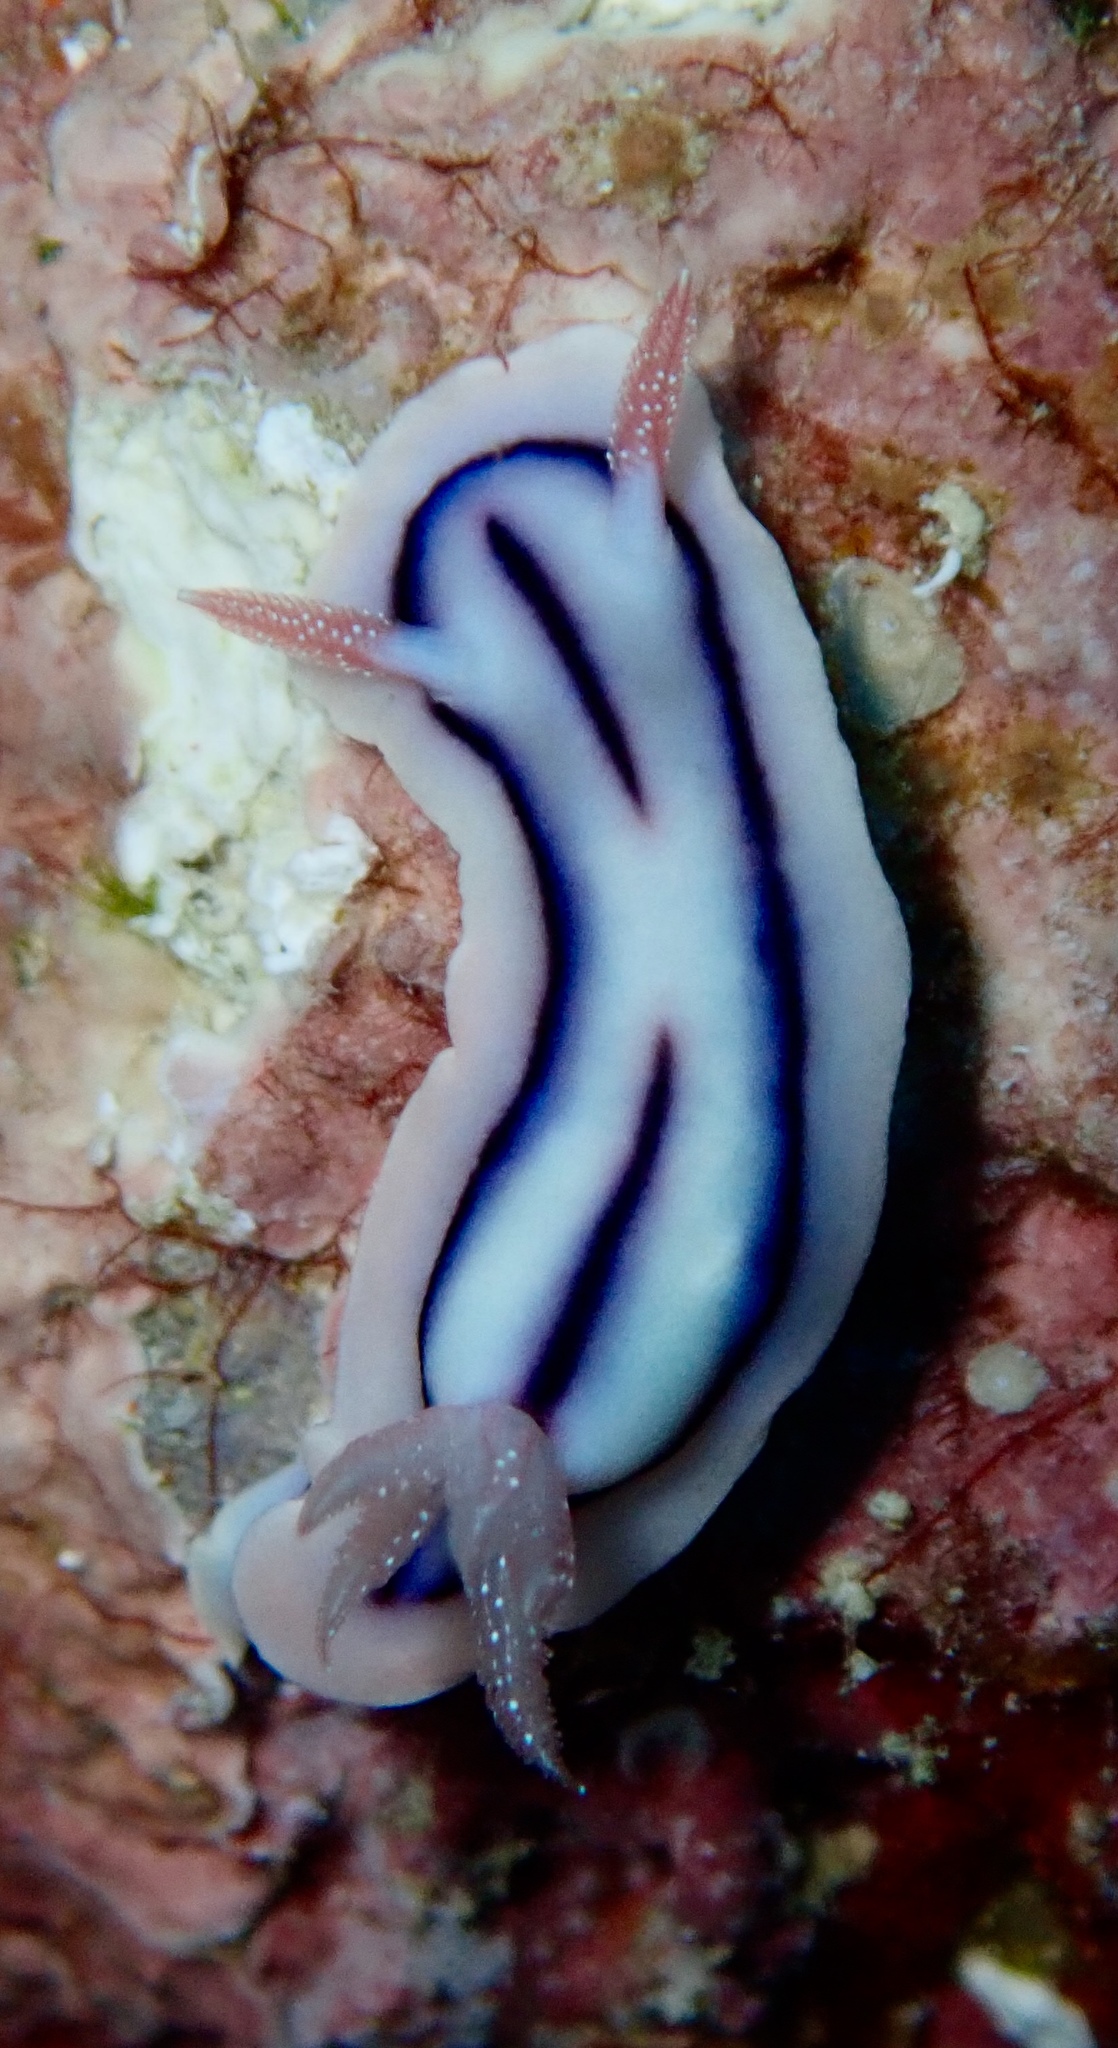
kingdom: Animalia
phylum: Mollusca
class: Gastropoda
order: Nudibranchia
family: Chromodorididae
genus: Chromodoris
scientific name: Chromodoris lochi
